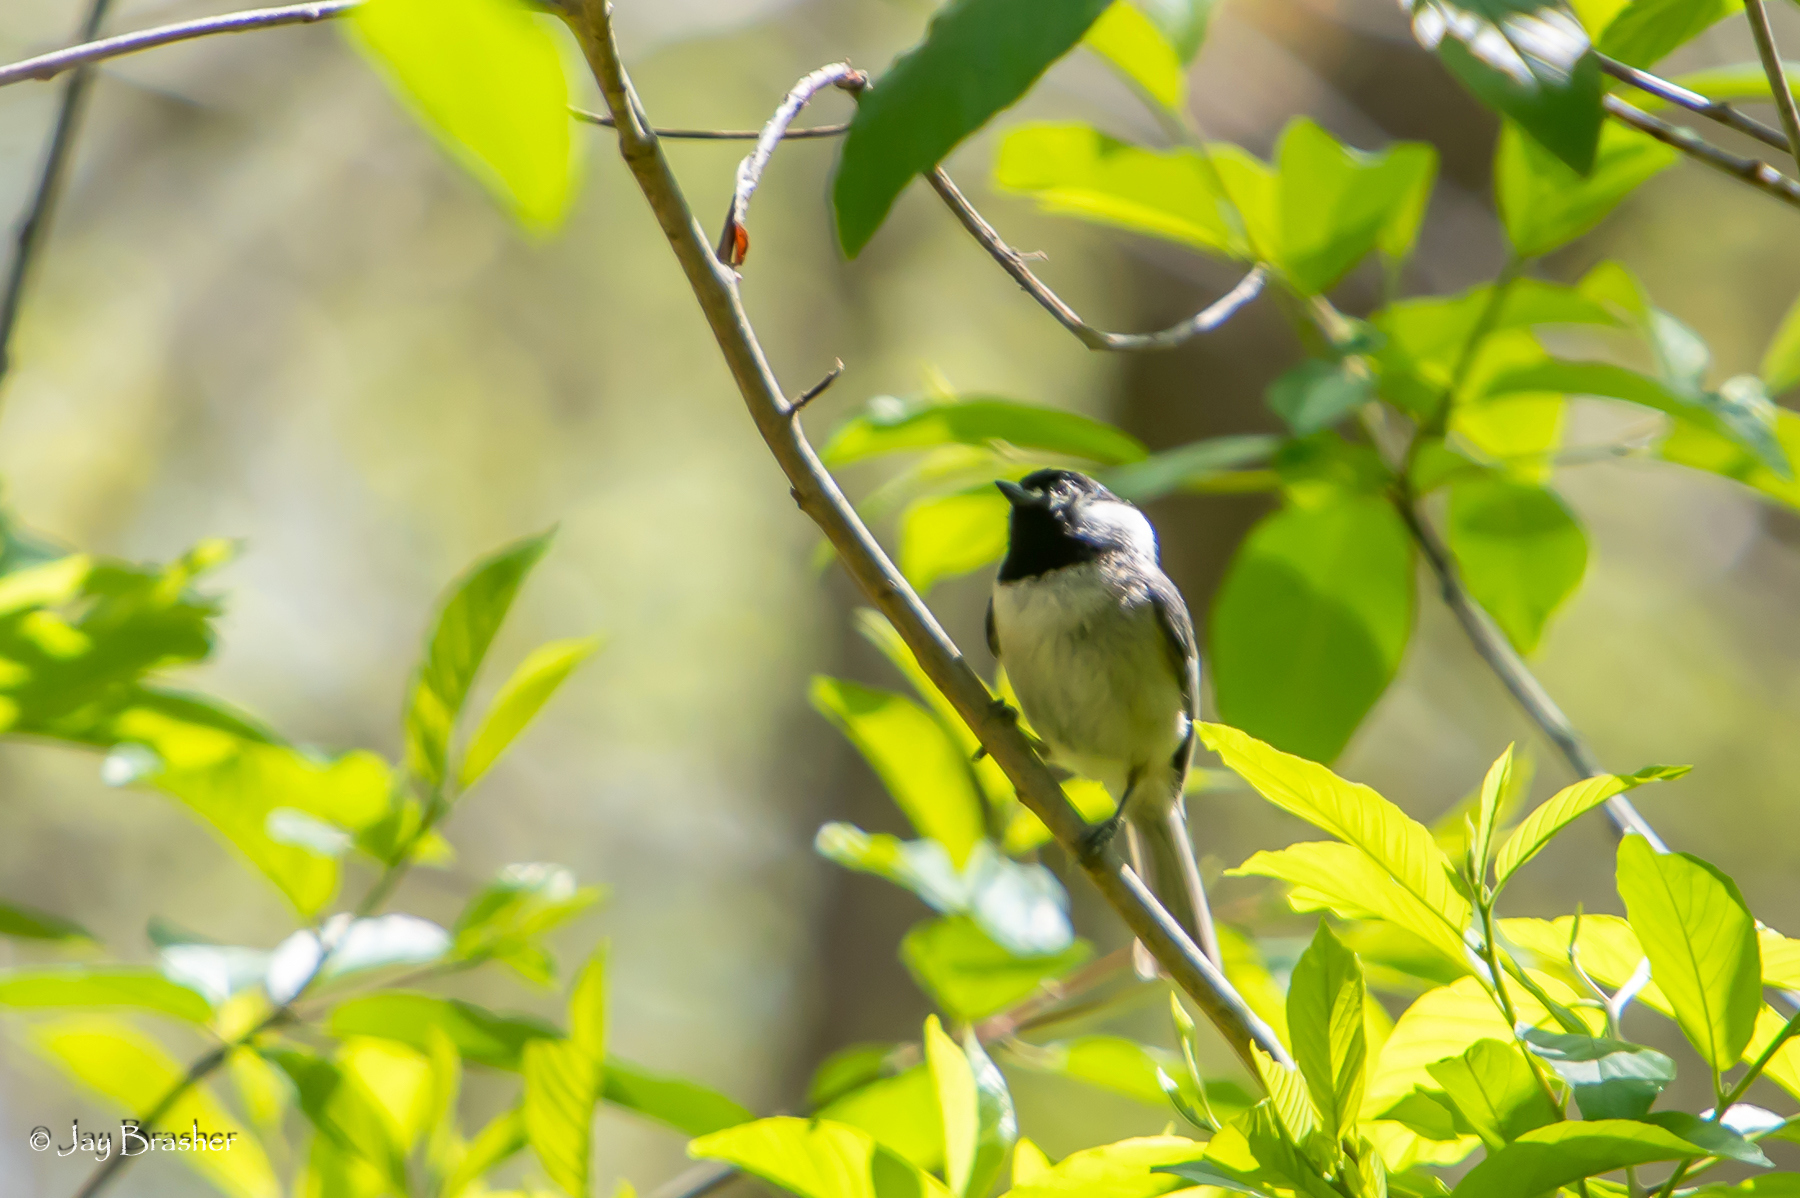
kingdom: Animalia
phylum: Chordata
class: Aves
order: Passeriformes
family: Paridae
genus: Poecile
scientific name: Poecile carolinensis
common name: Carolina chickadee
